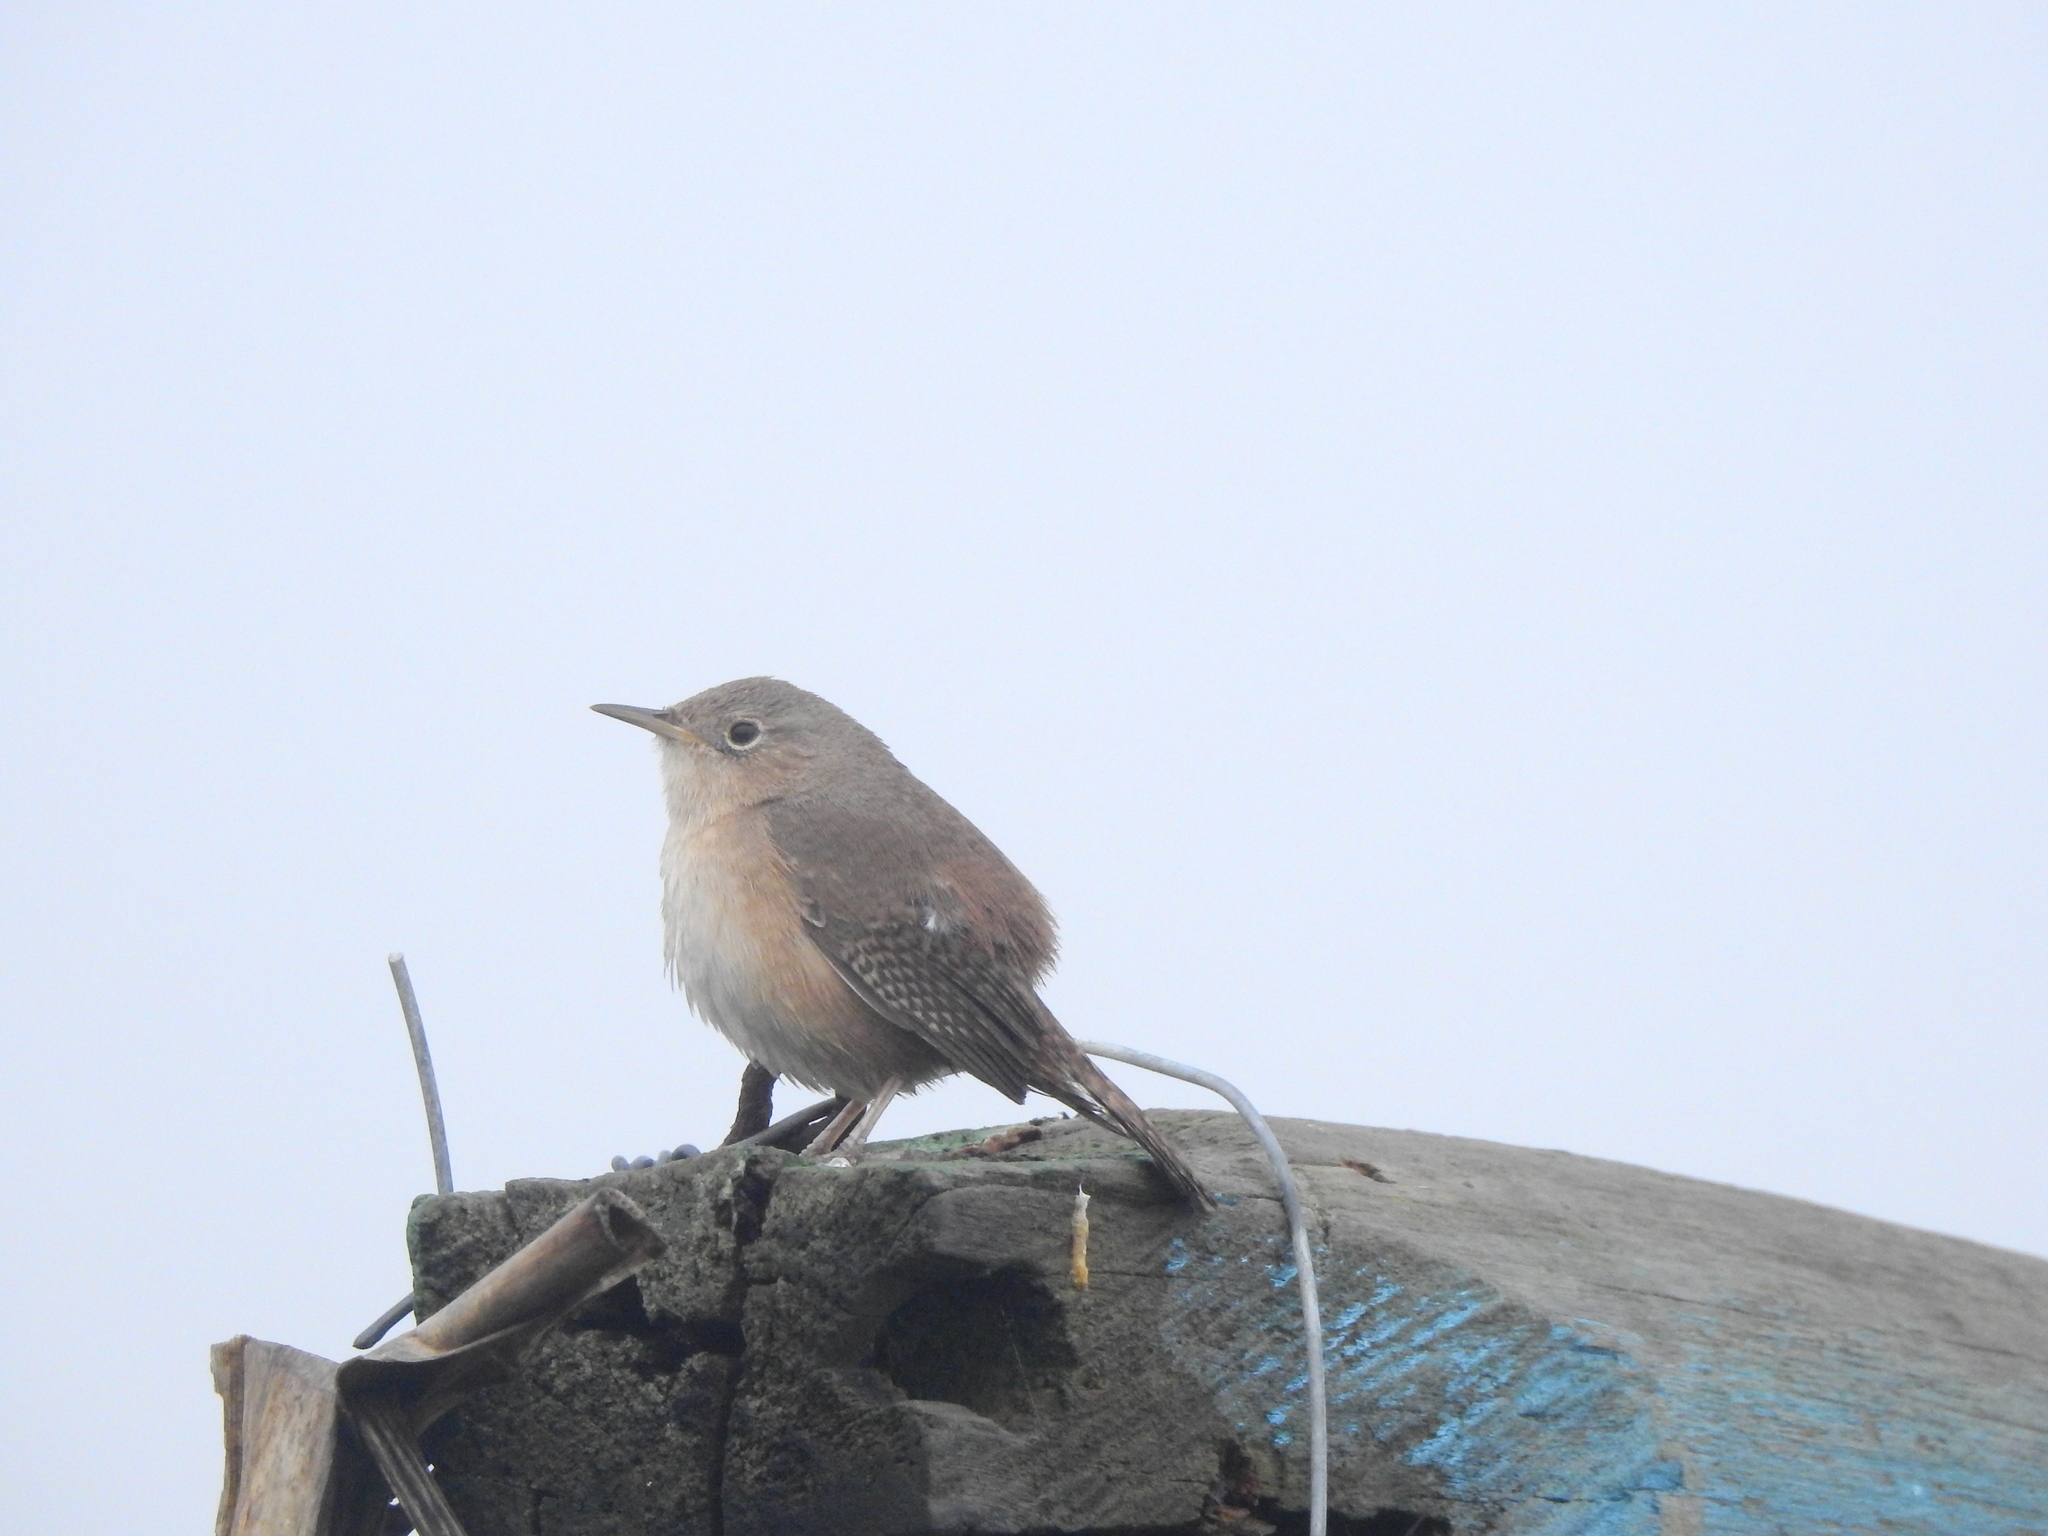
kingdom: Animalia
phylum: Chordata
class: Aves
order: Passeriformes
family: Troglodytidae
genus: Troglodytes
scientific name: Troglodytes aedon
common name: House wren
